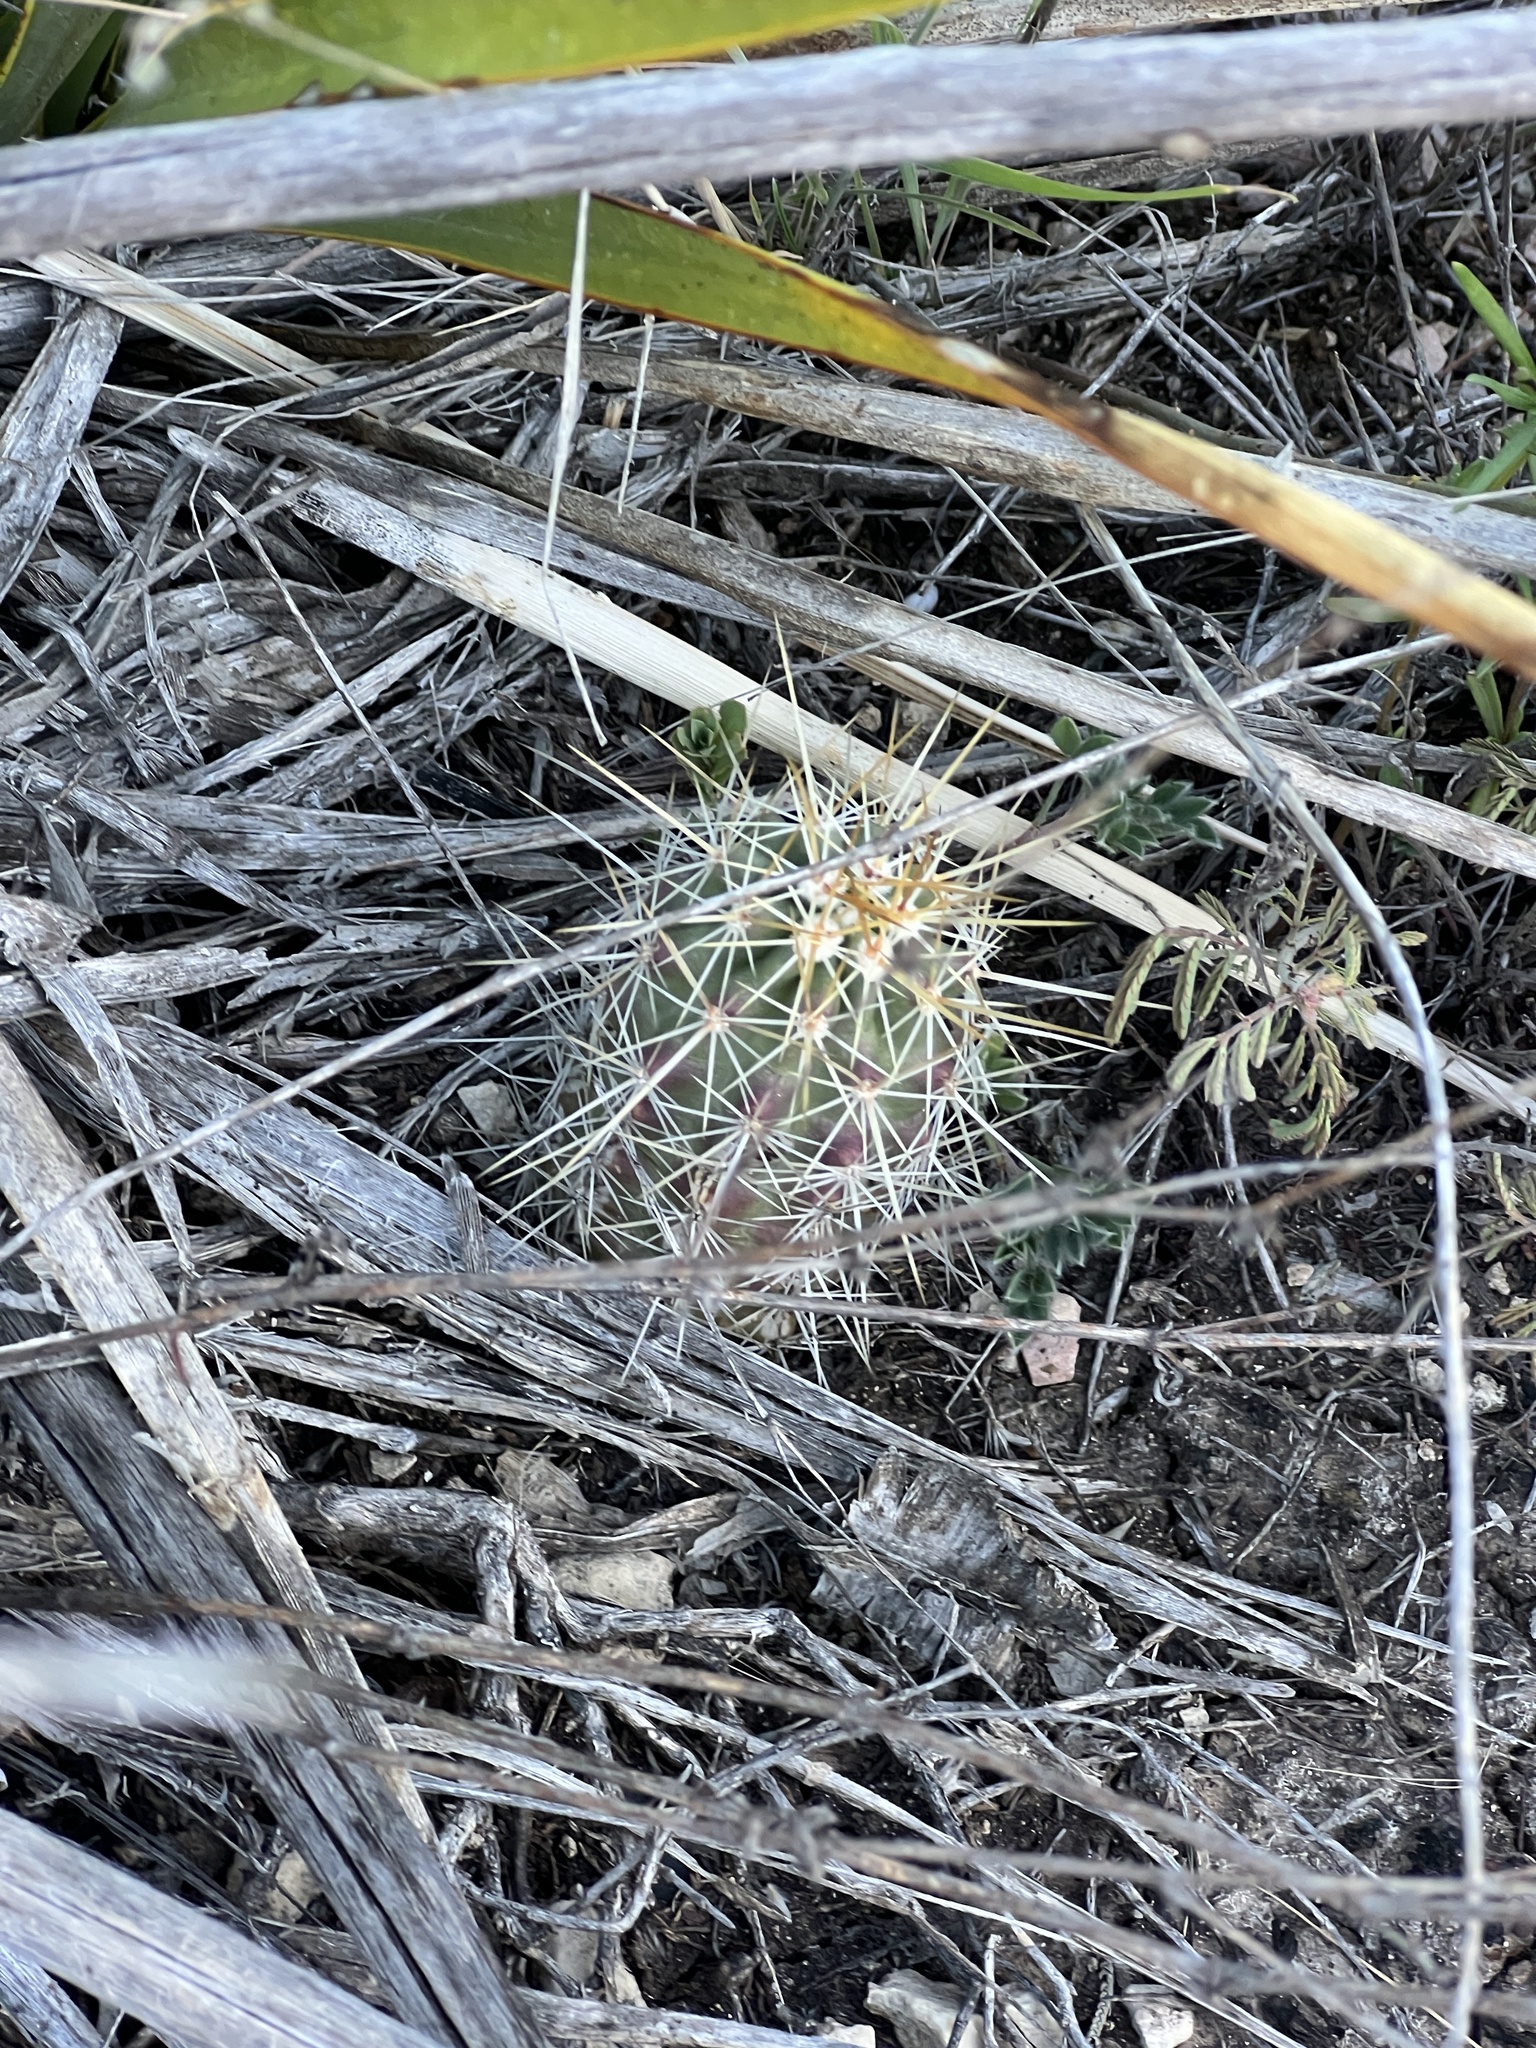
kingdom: Plantae
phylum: Tracheophyta
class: Magnoliopsida
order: Caryophyllales
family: Cactaceae
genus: Echinocereus
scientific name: Echinocereus enneacanthus
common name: Pitaya
